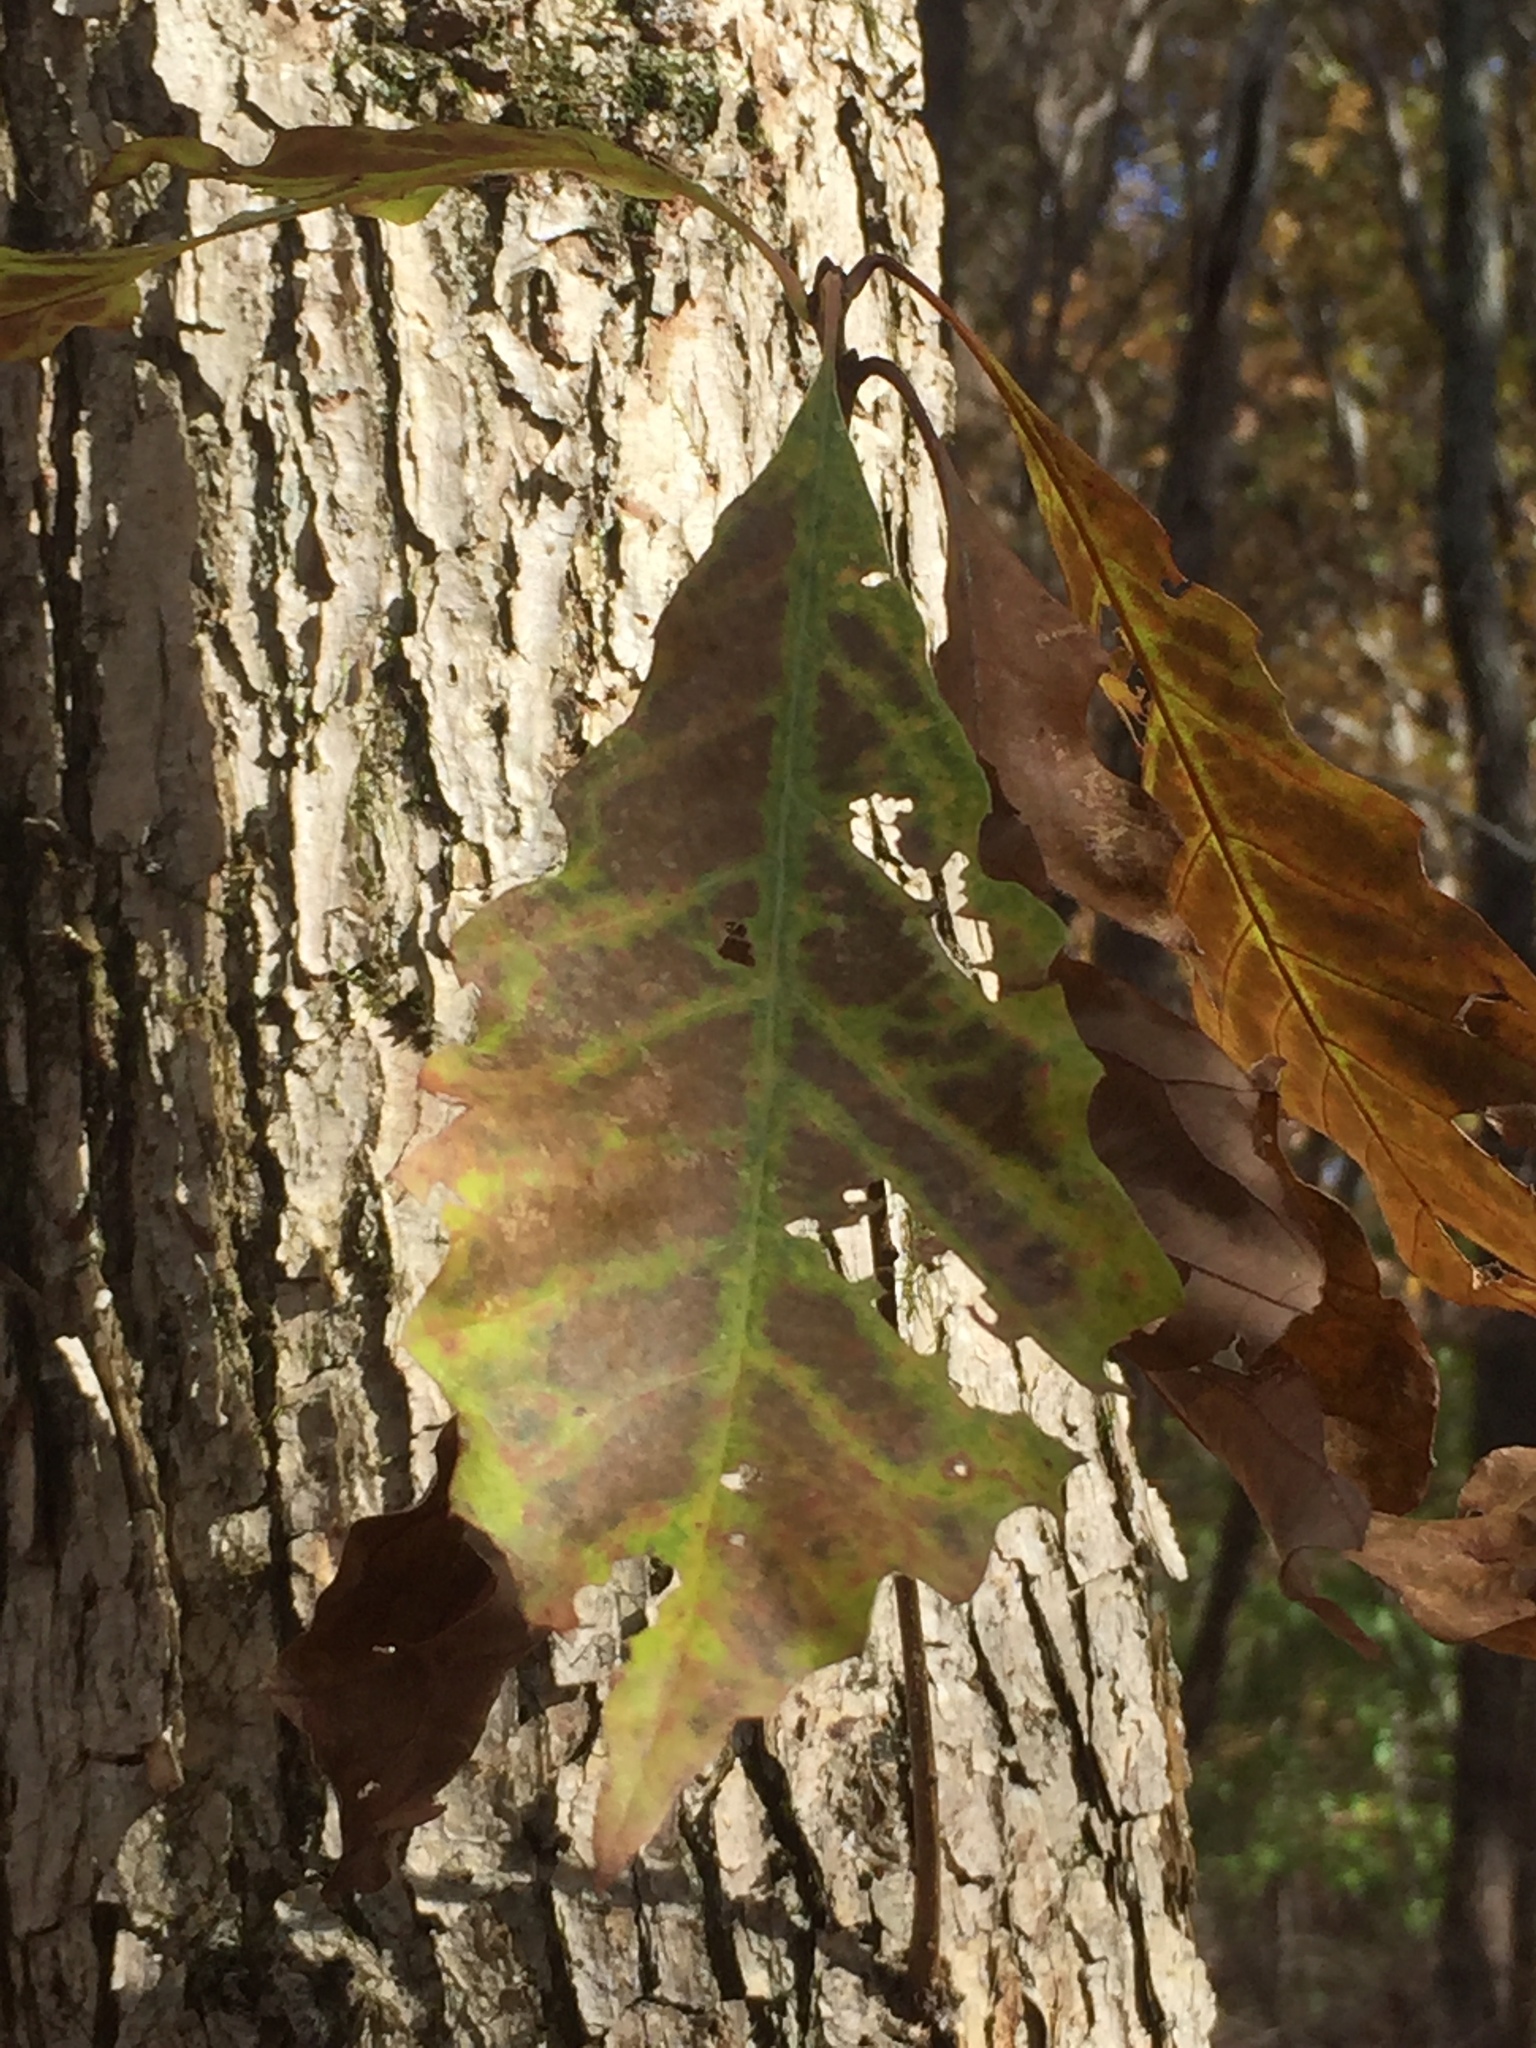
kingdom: Plantae
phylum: Tracheophyta
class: Magnoliopsida
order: Fagales
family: Fagaceae
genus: Quercus
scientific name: Quercus bicolor
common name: Swamp white oak
